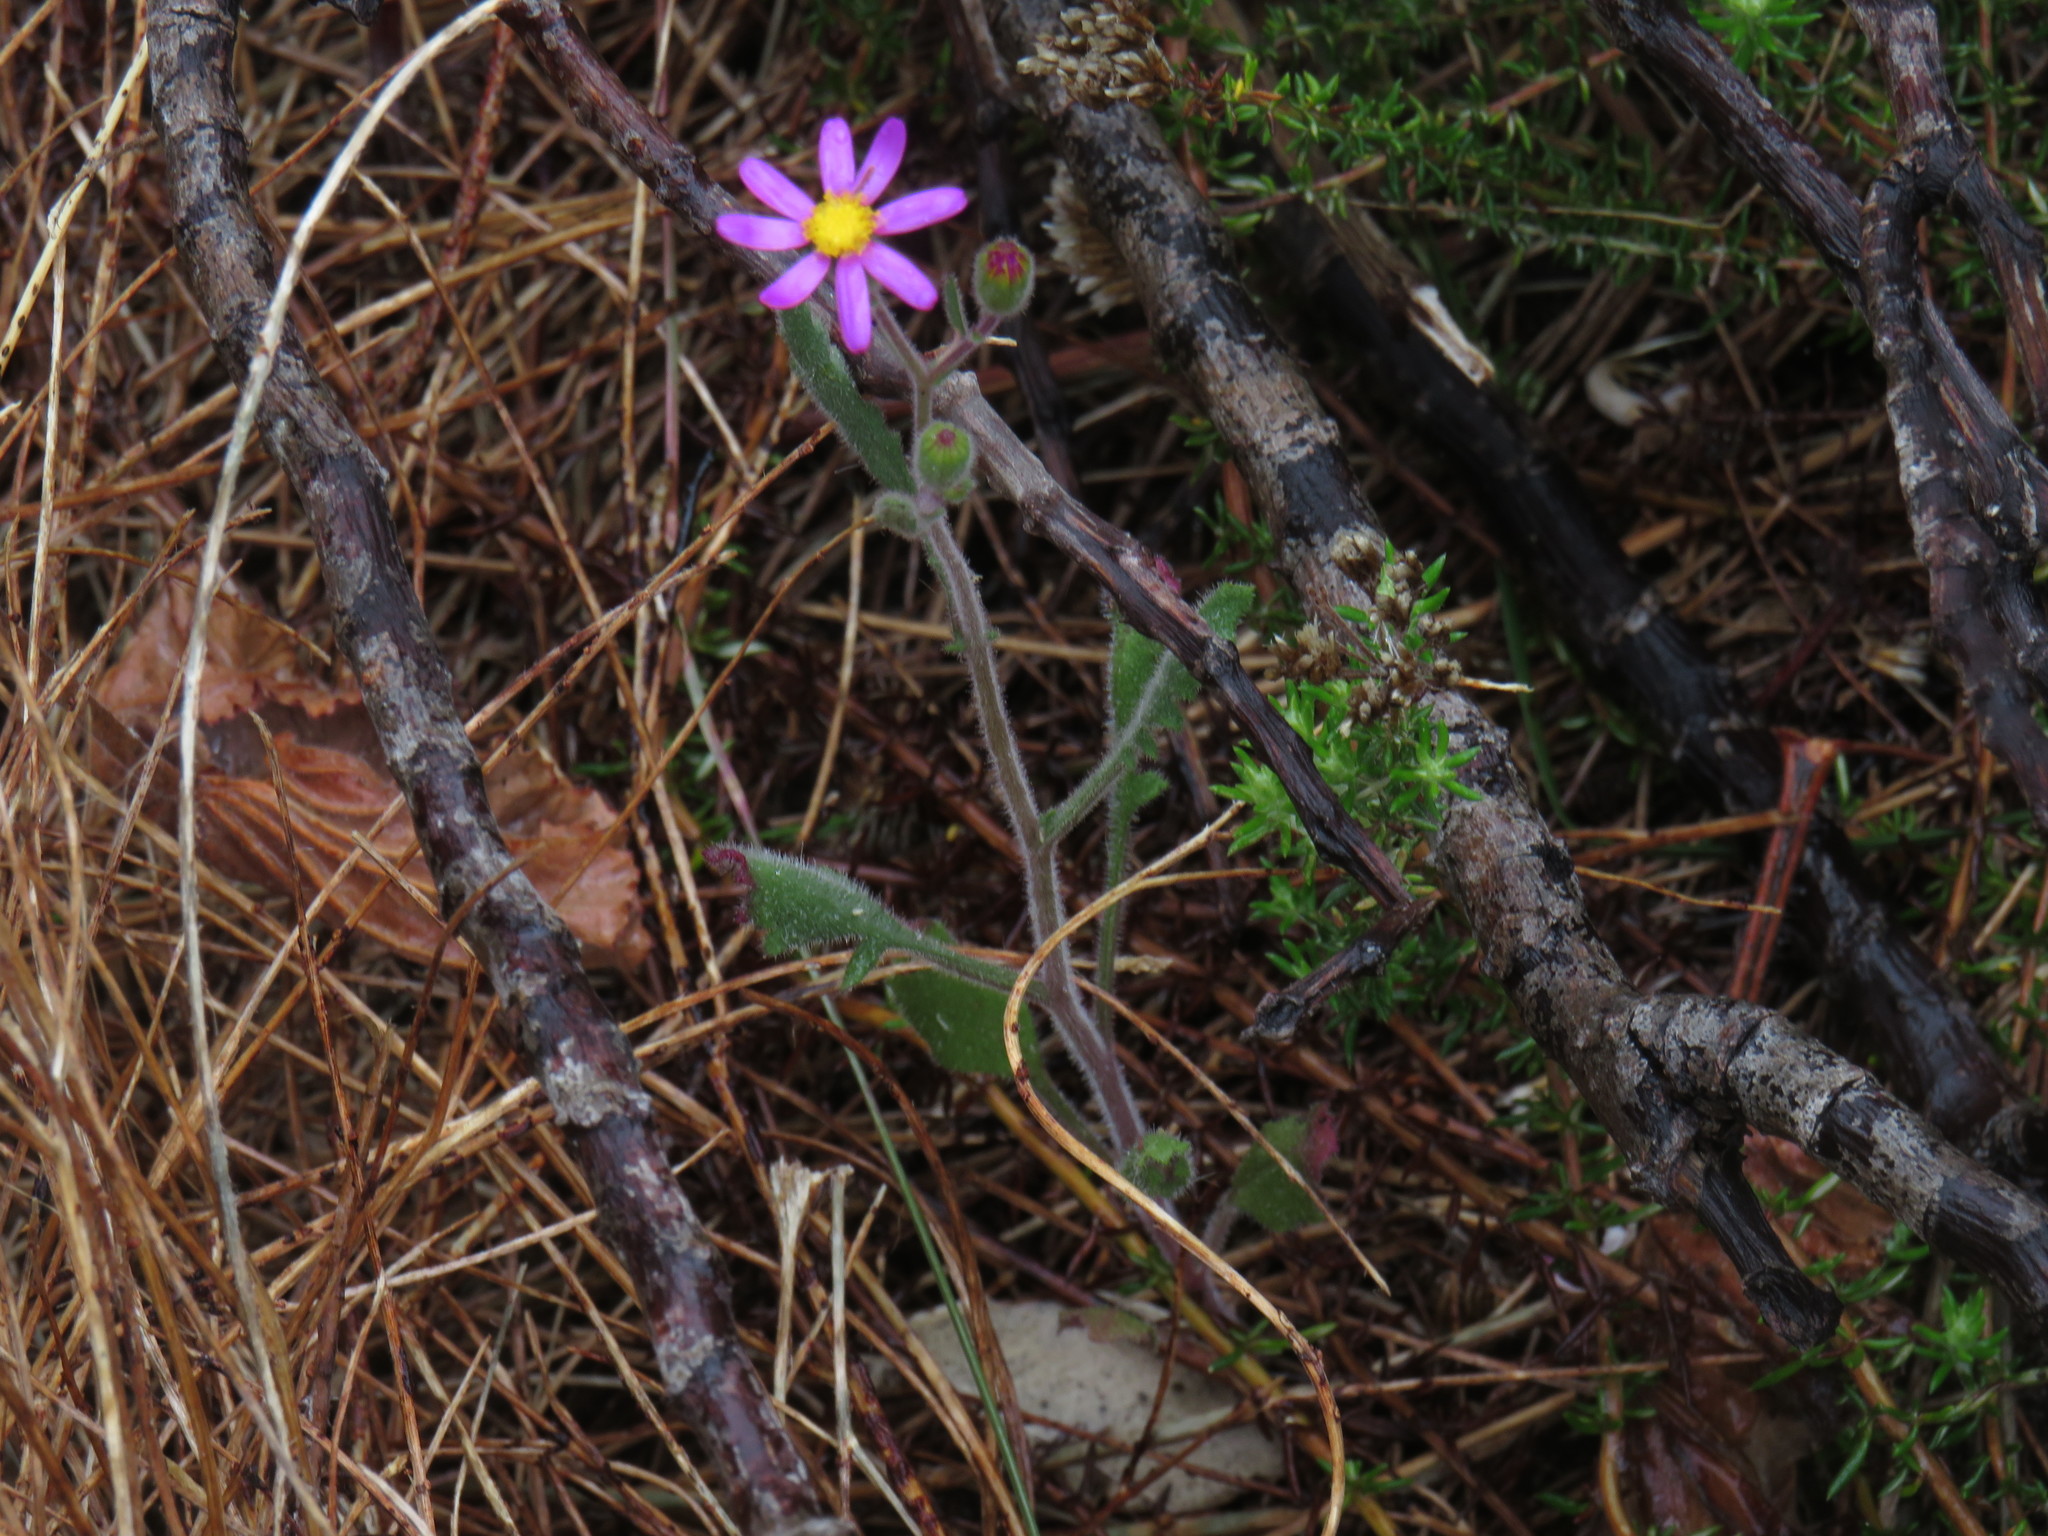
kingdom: Plantae
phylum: Tracheophyta
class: Magnoliopsida
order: Asterales
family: Asteraceae
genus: Senecio
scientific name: Senecio arenarius
